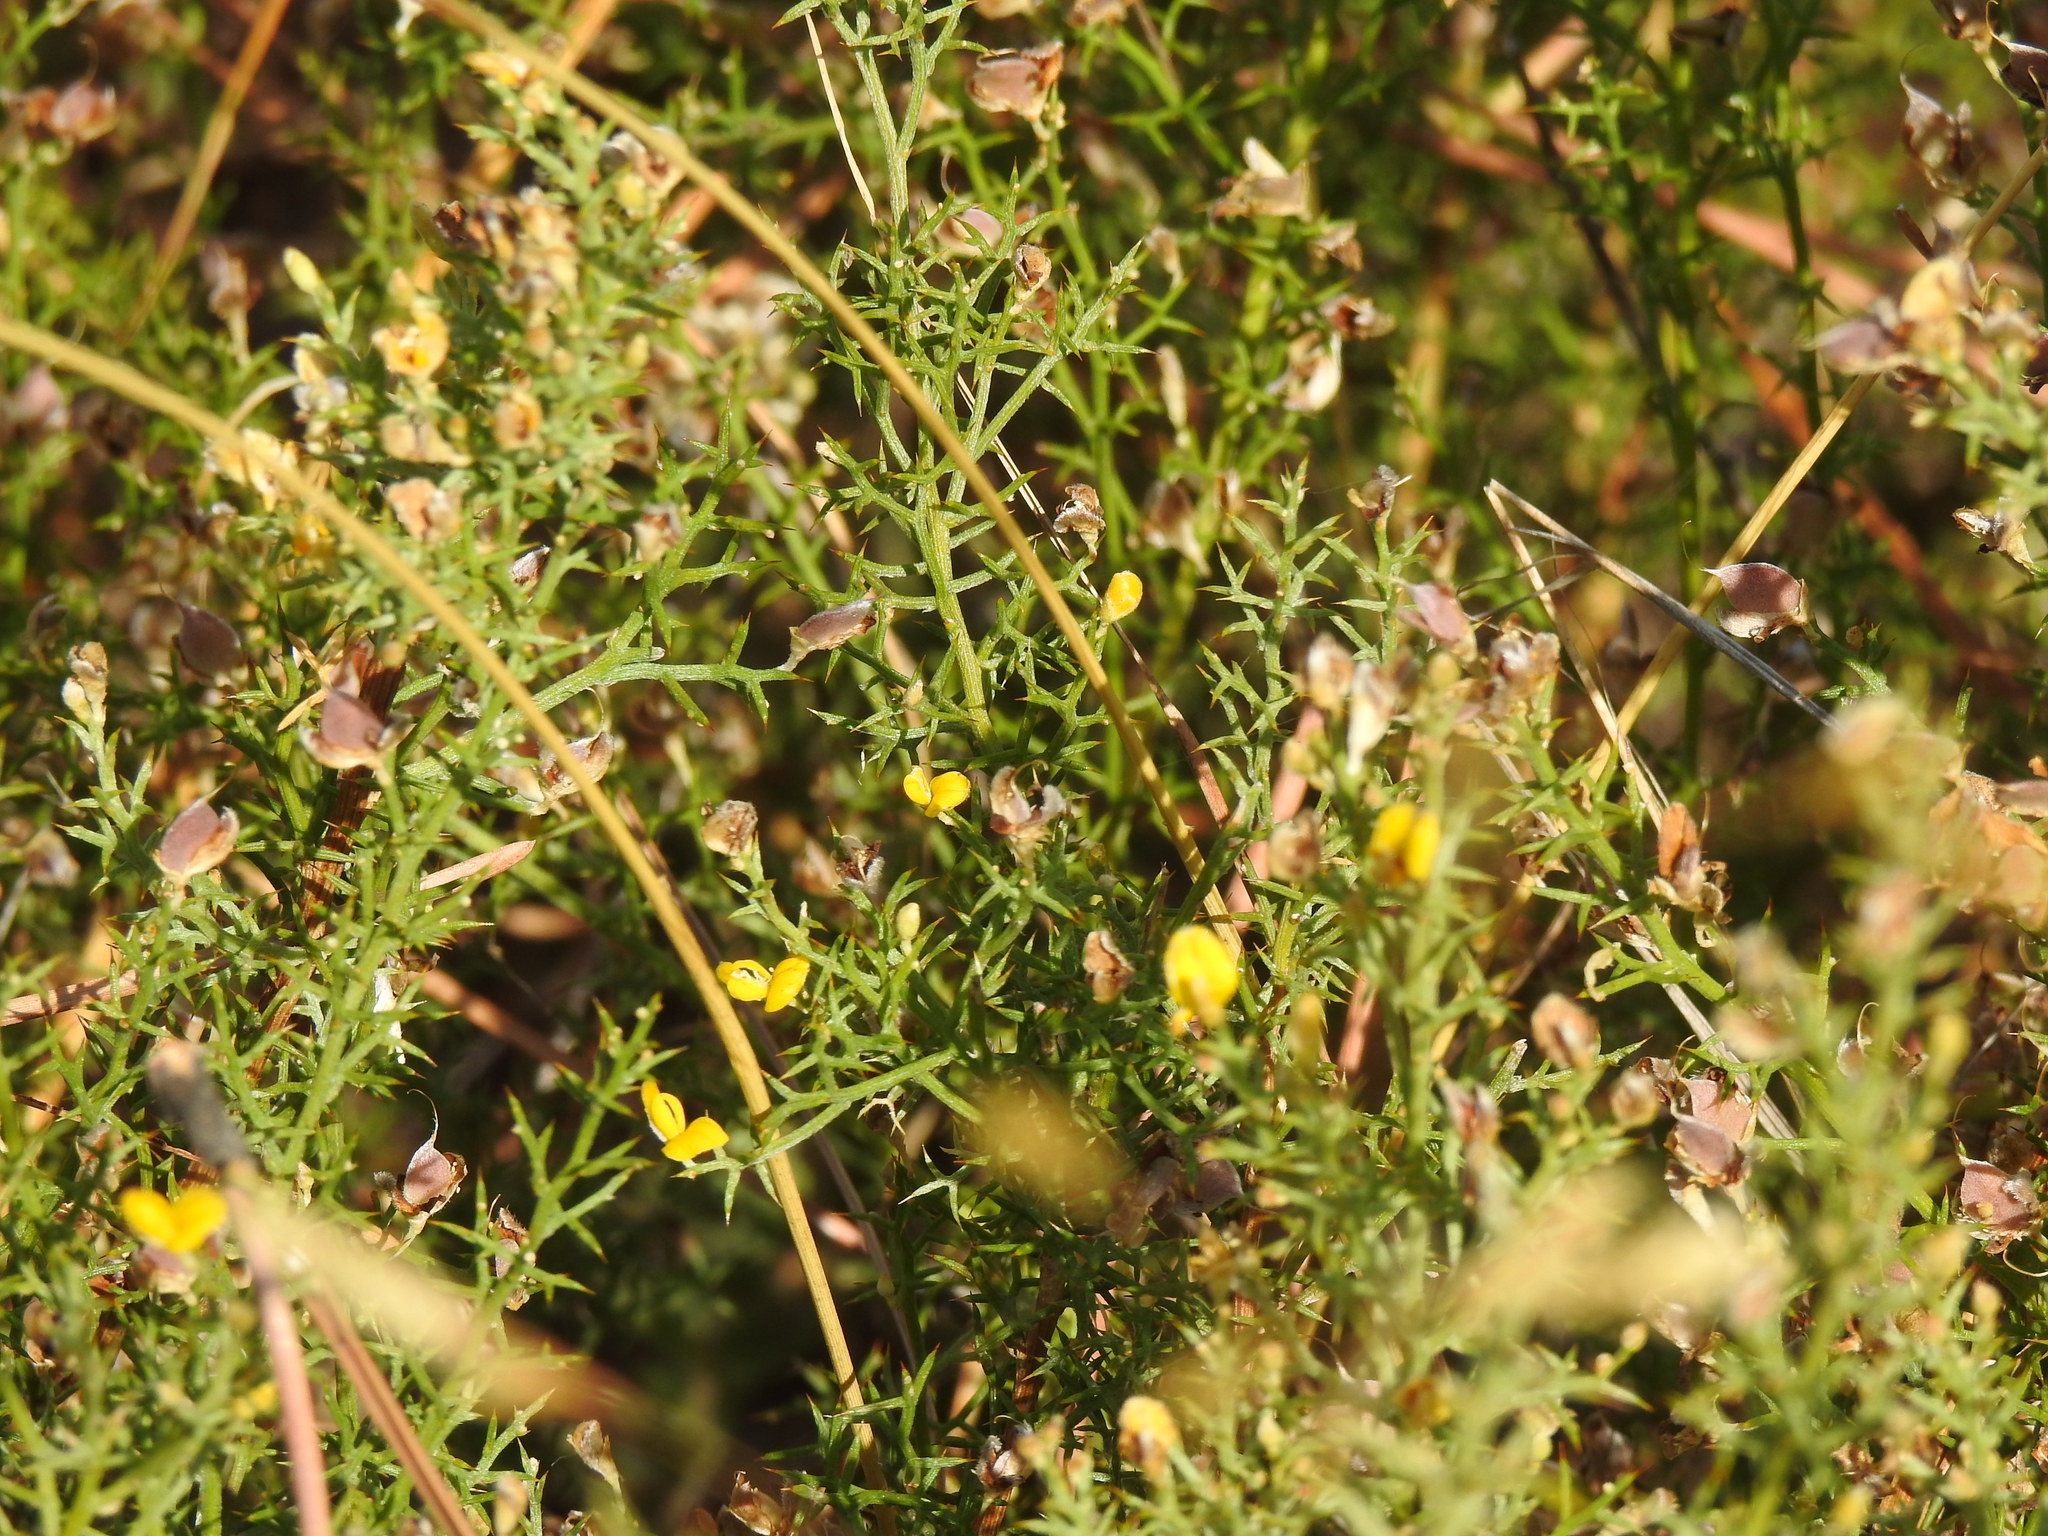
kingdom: Plantae
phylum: Tracheophyta
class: Magnoliopsida
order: Fabales
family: Fabaceae
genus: Stauracanthus
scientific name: Stauracanthus boivinii
